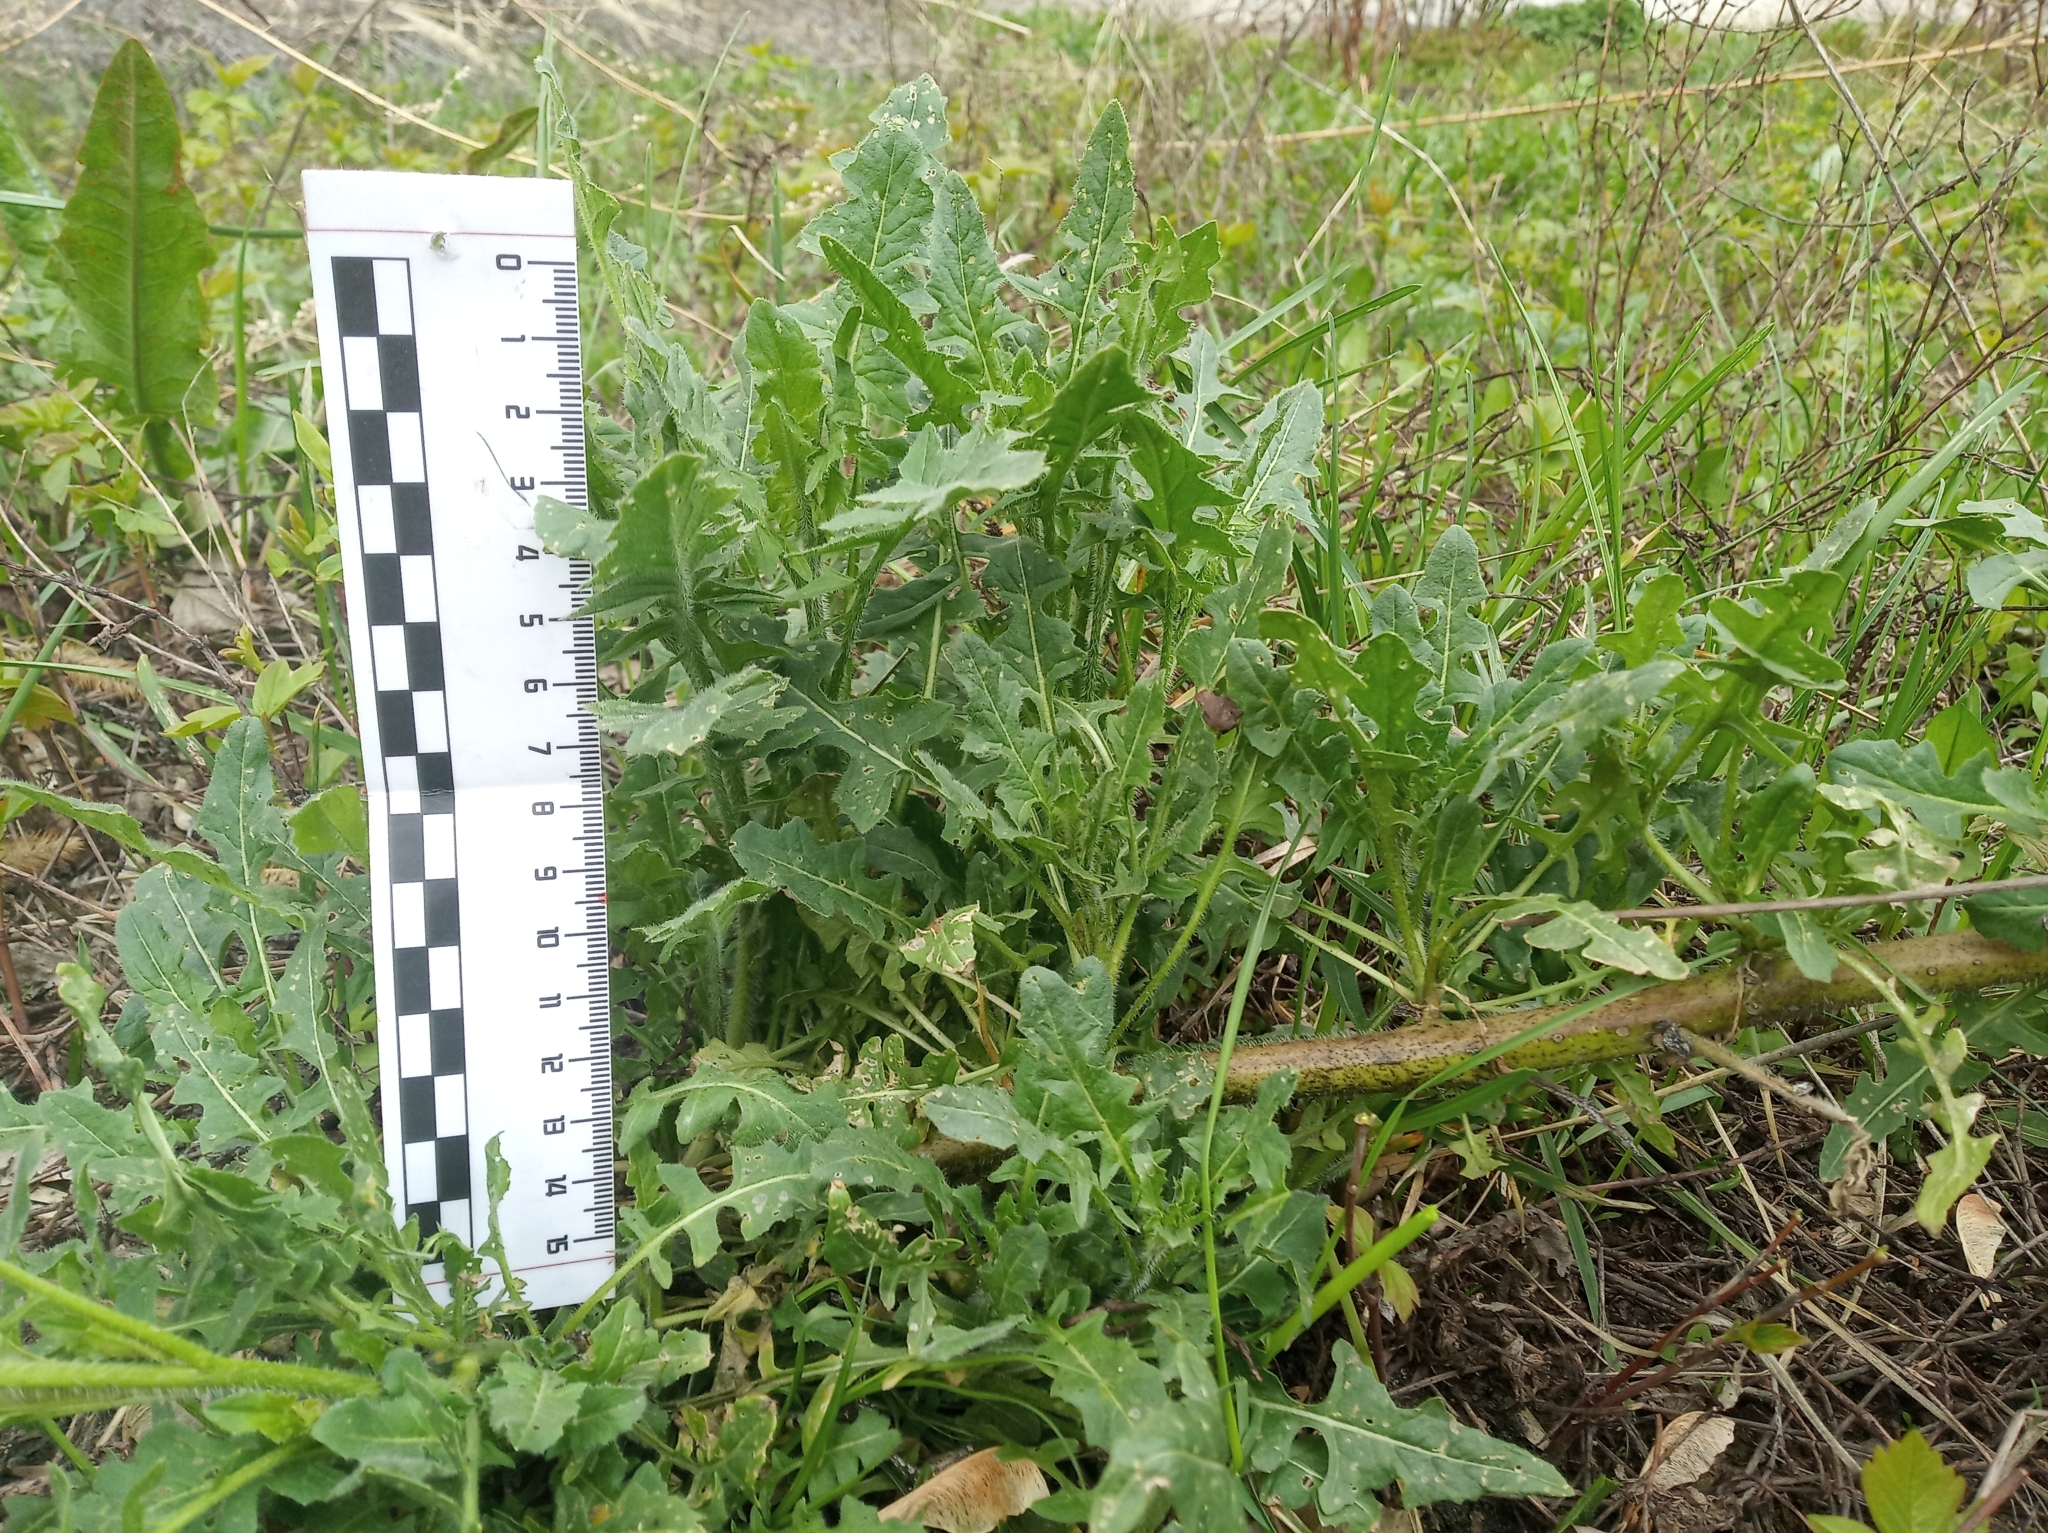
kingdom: Plantae
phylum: Tracheophyta
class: Magnoliopsida
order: Brassicales
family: Brassicaceae
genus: Sisymbrium
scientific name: Sisymbrium loeselii
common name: False london-rocket
